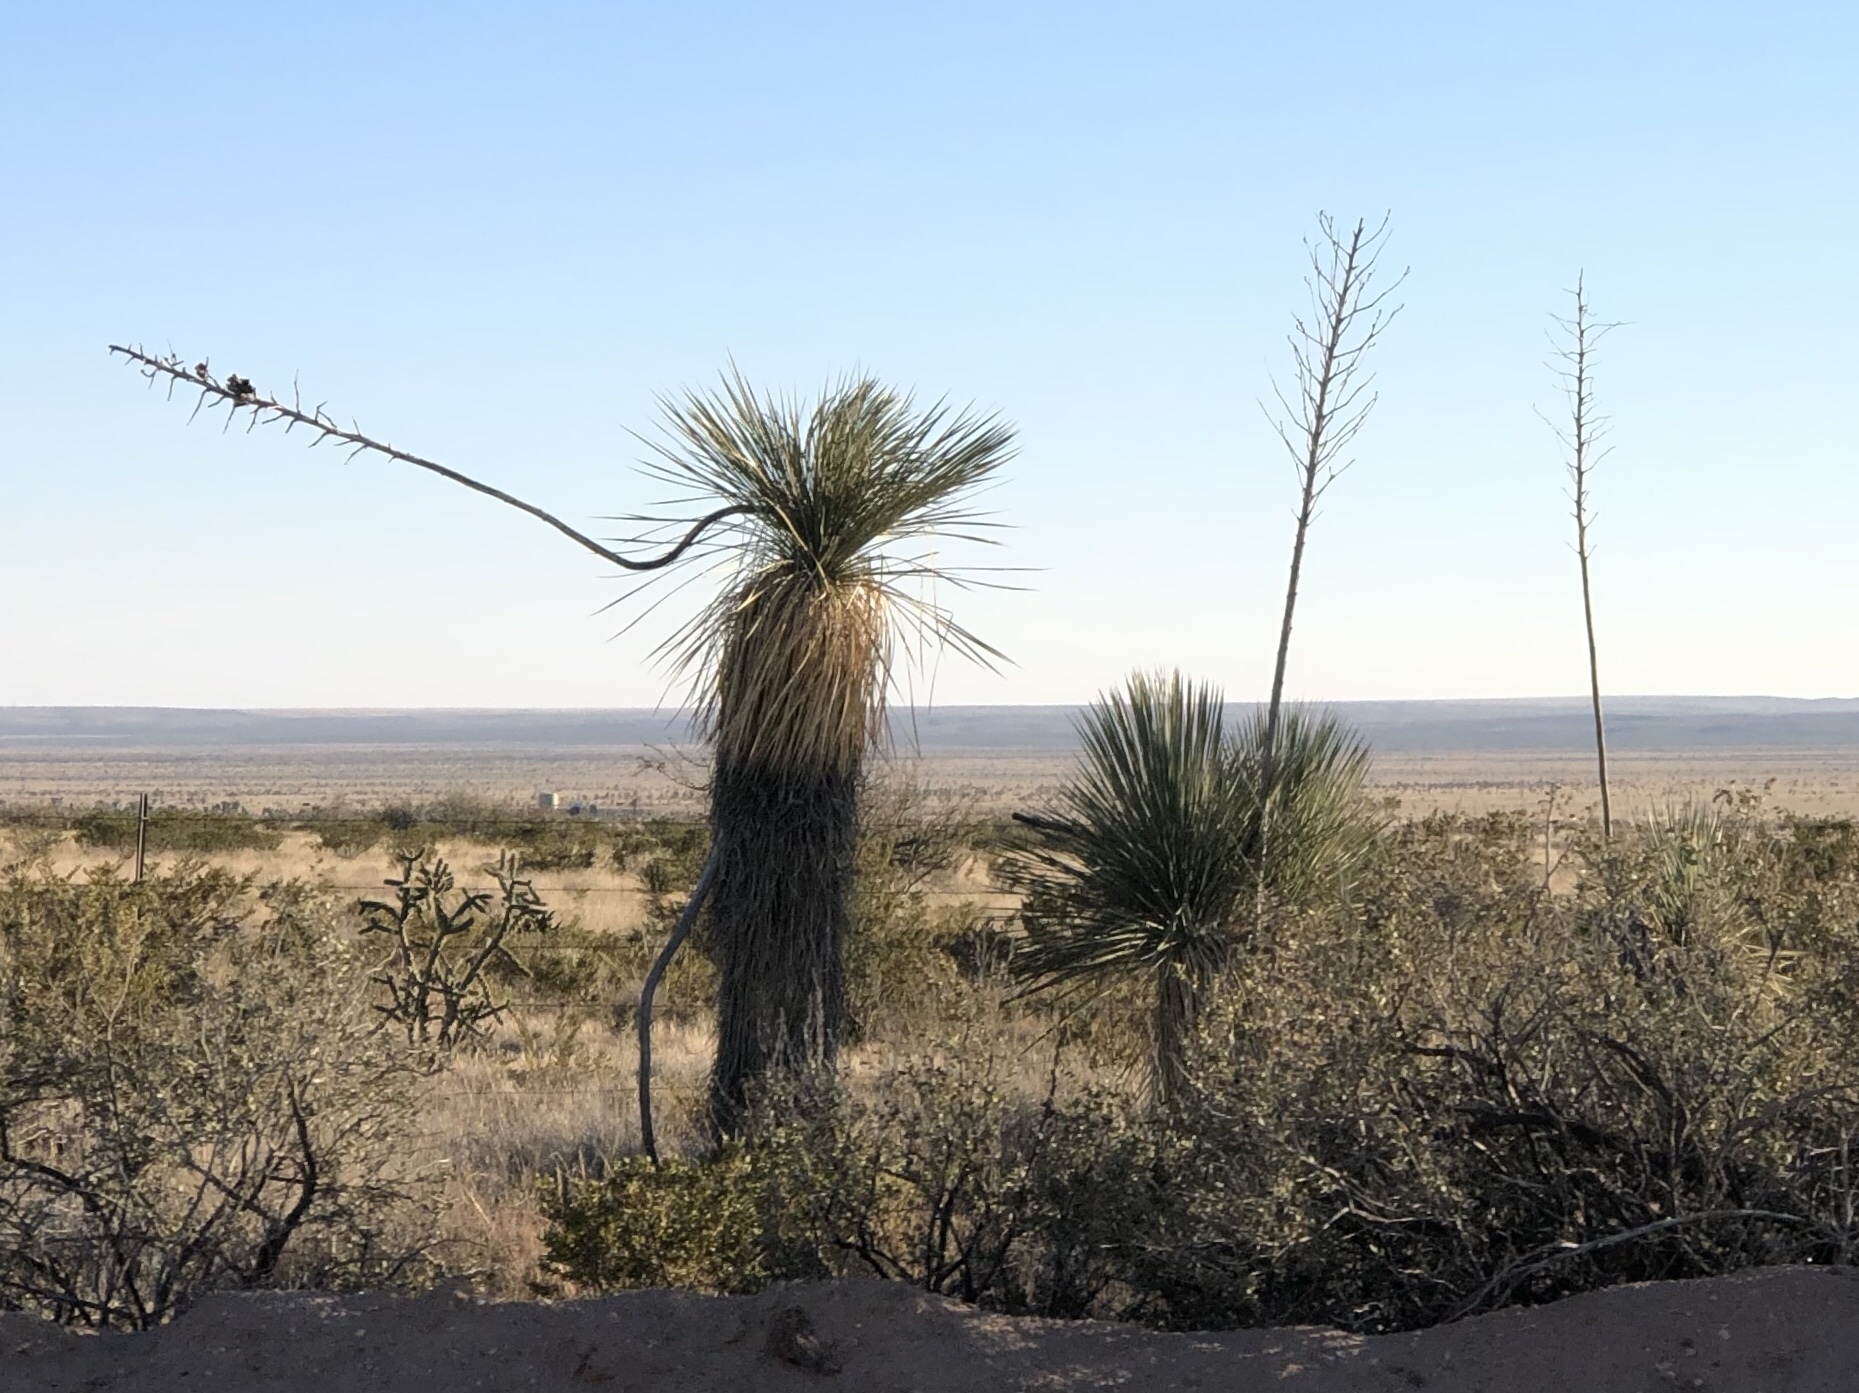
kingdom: Plantae
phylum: Tracheophyta
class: Liliopsida
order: Asparagales
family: Asparagaceae
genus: Yucca
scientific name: Yucca elata
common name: Palmella
